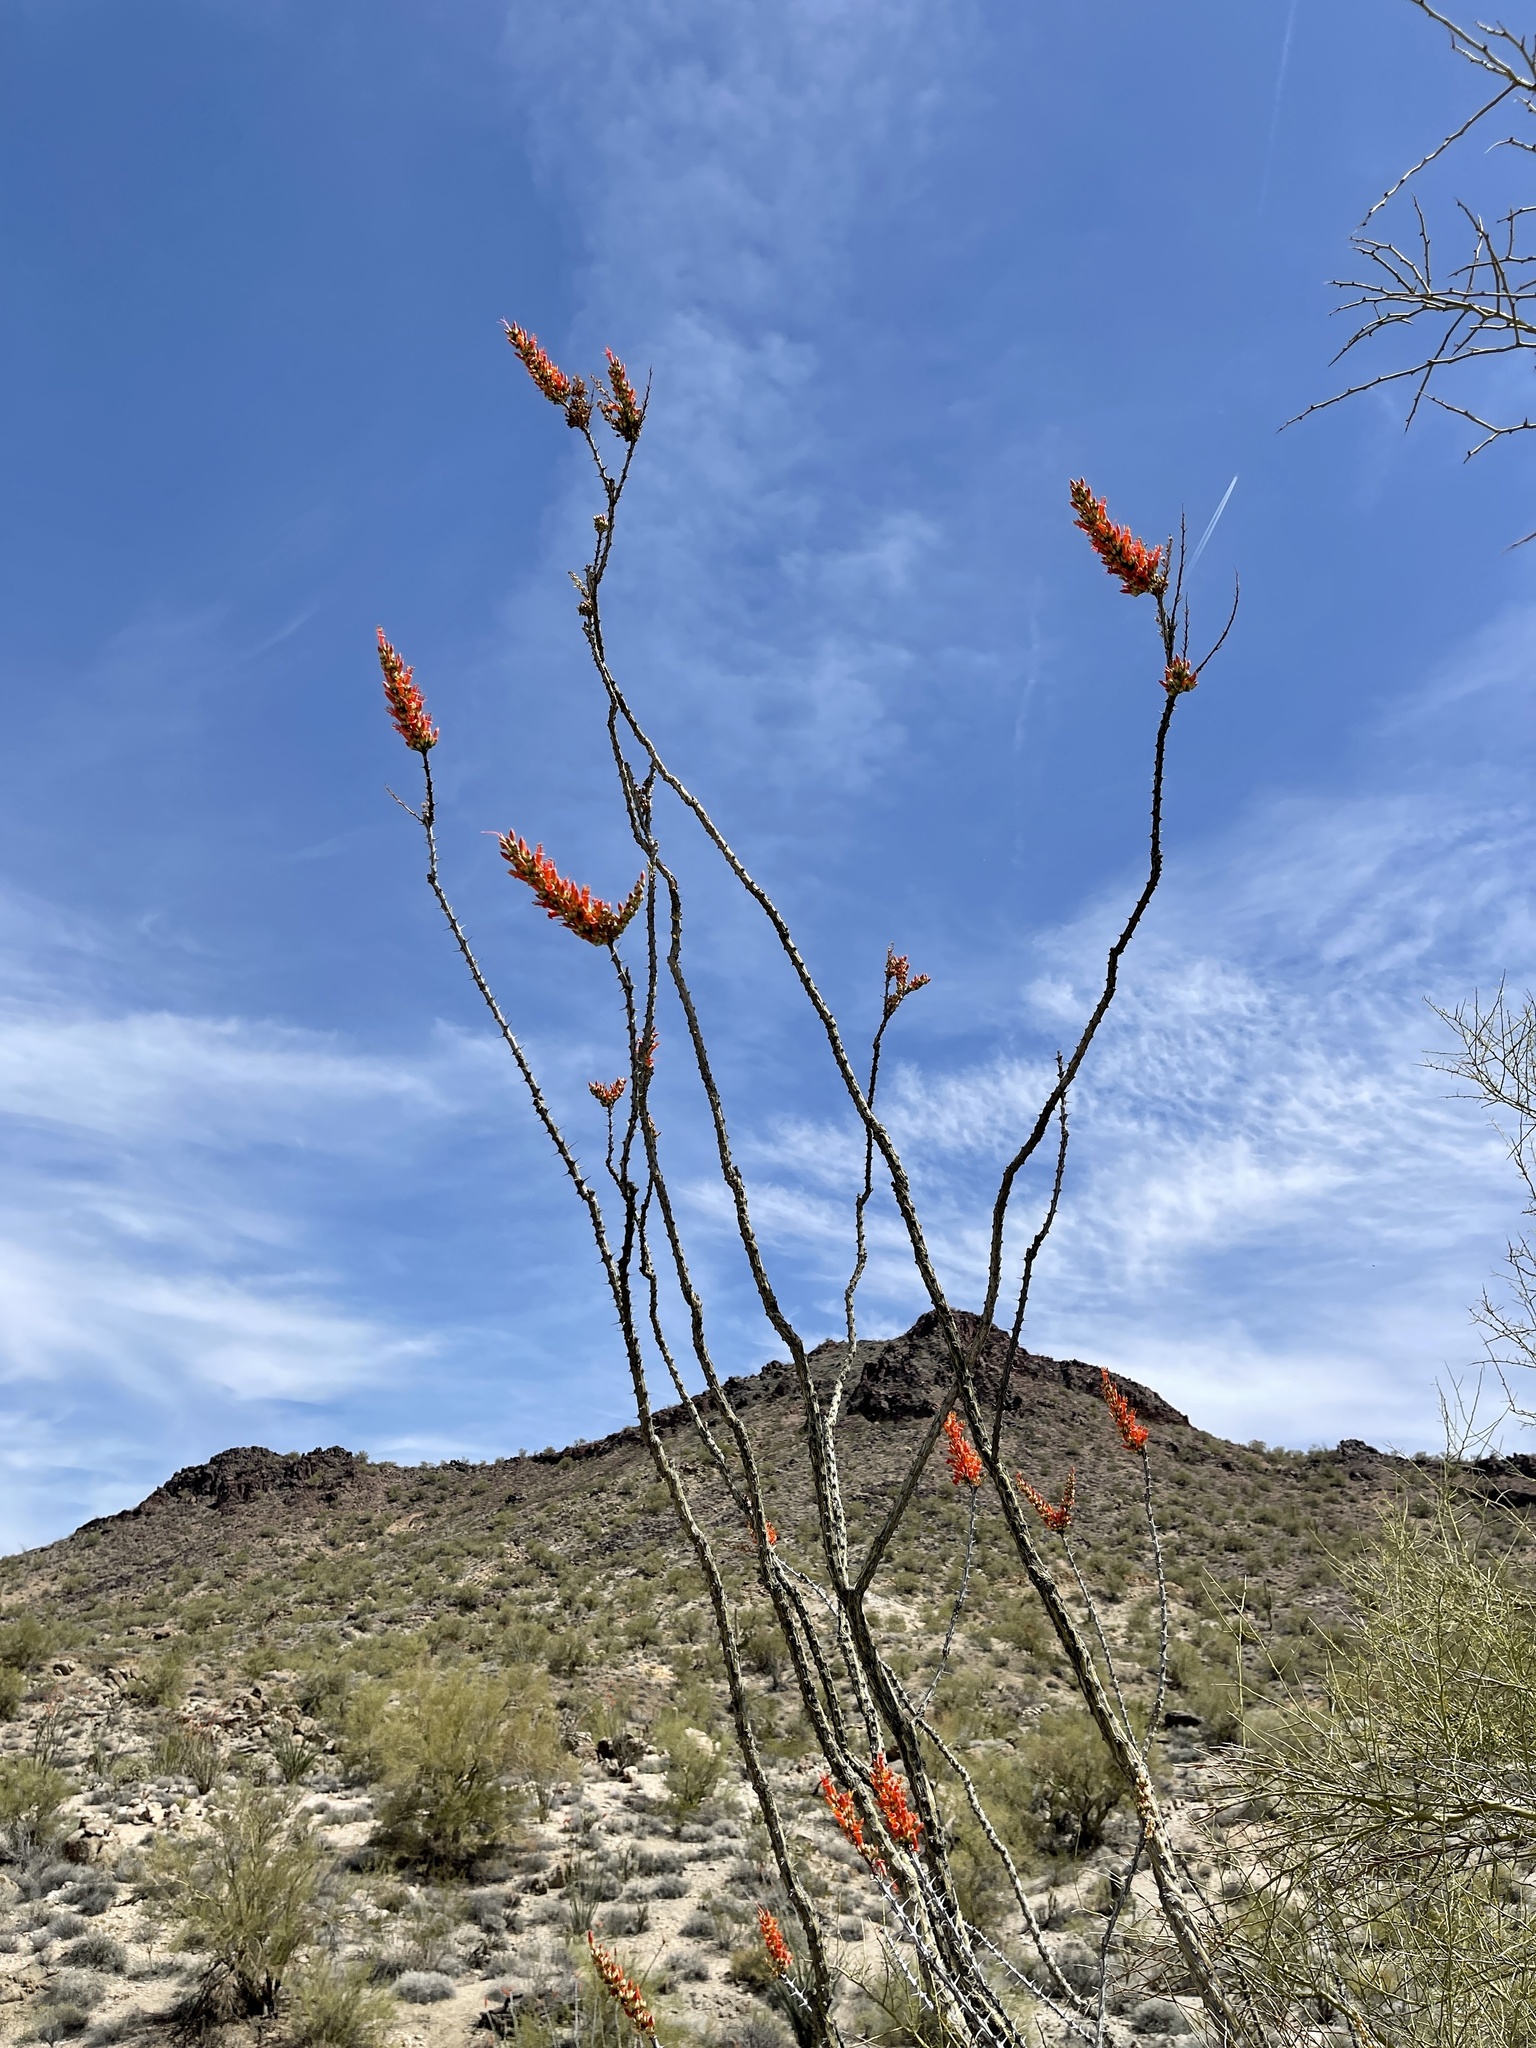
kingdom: Plantae
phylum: Tracheophyta
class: Magnoliopsida
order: Ericales
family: Fouquieriaceae
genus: Fouquieria
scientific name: Fouquieria splendens
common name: Vine-cactus
